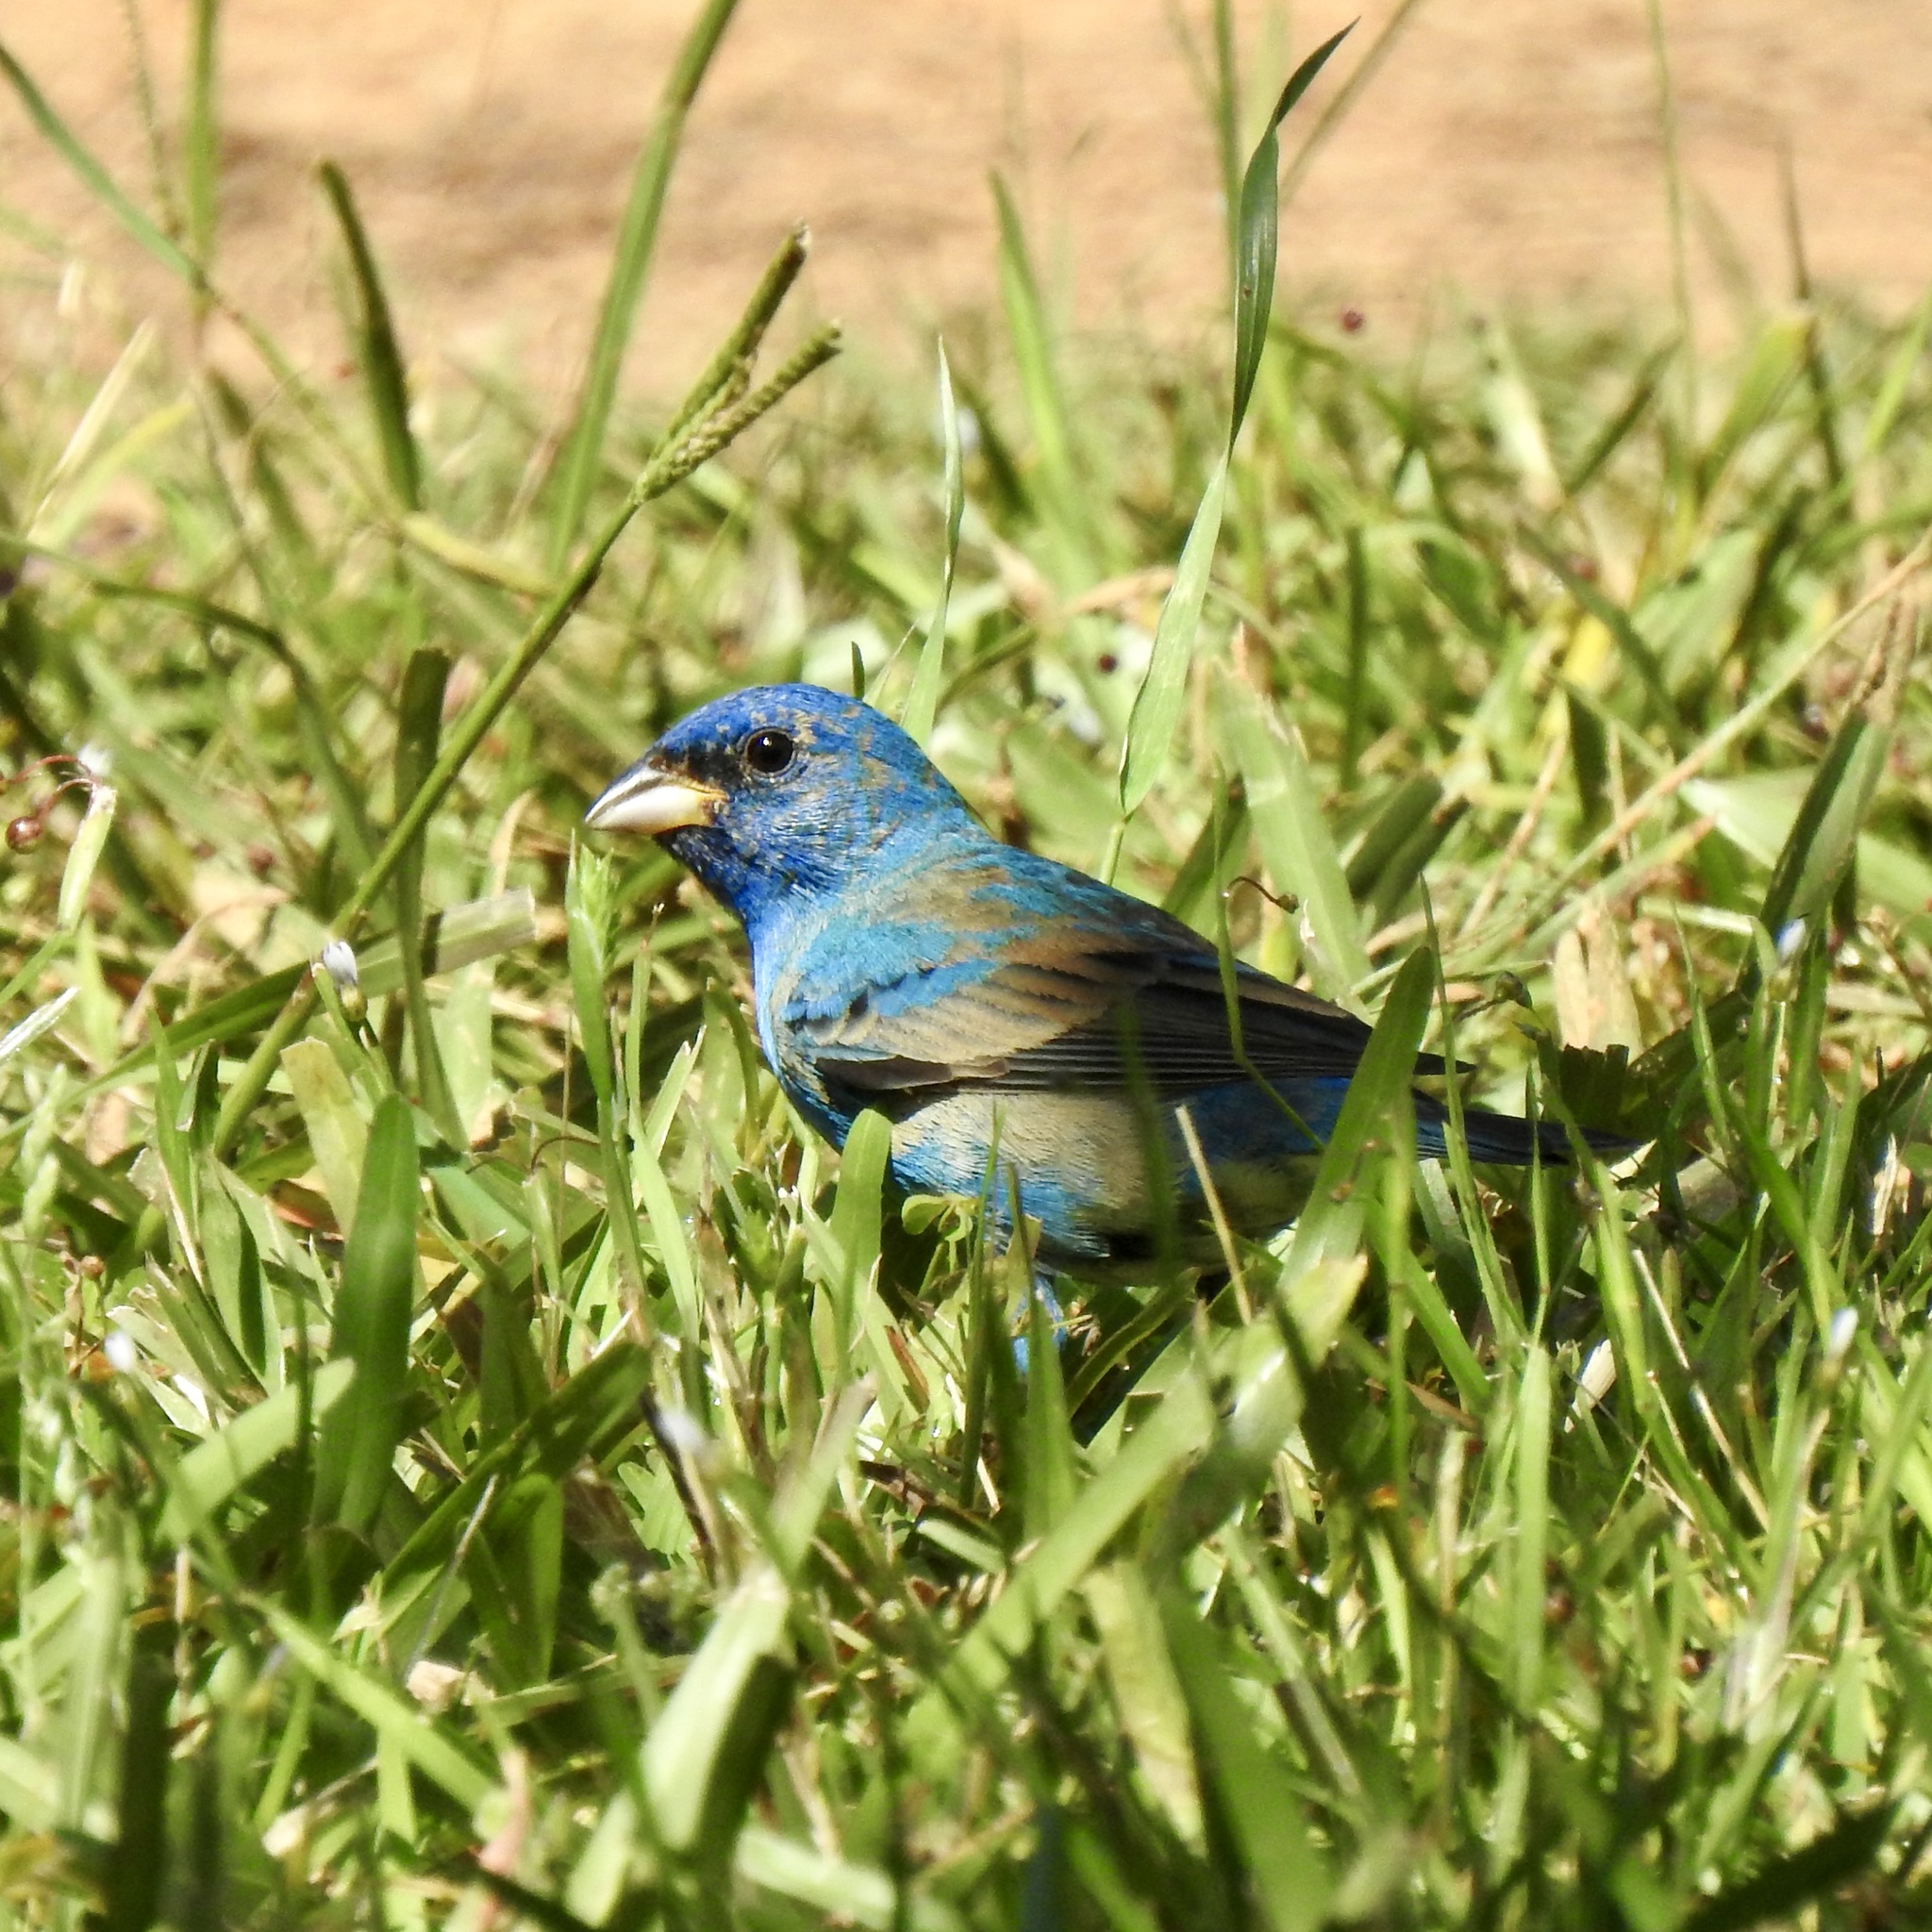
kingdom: Animalia
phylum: Chordata
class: Aves
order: Passeriformes
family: Cardinalidae
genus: Passerina
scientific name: Passerina cyanea
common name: Indigo bunting
